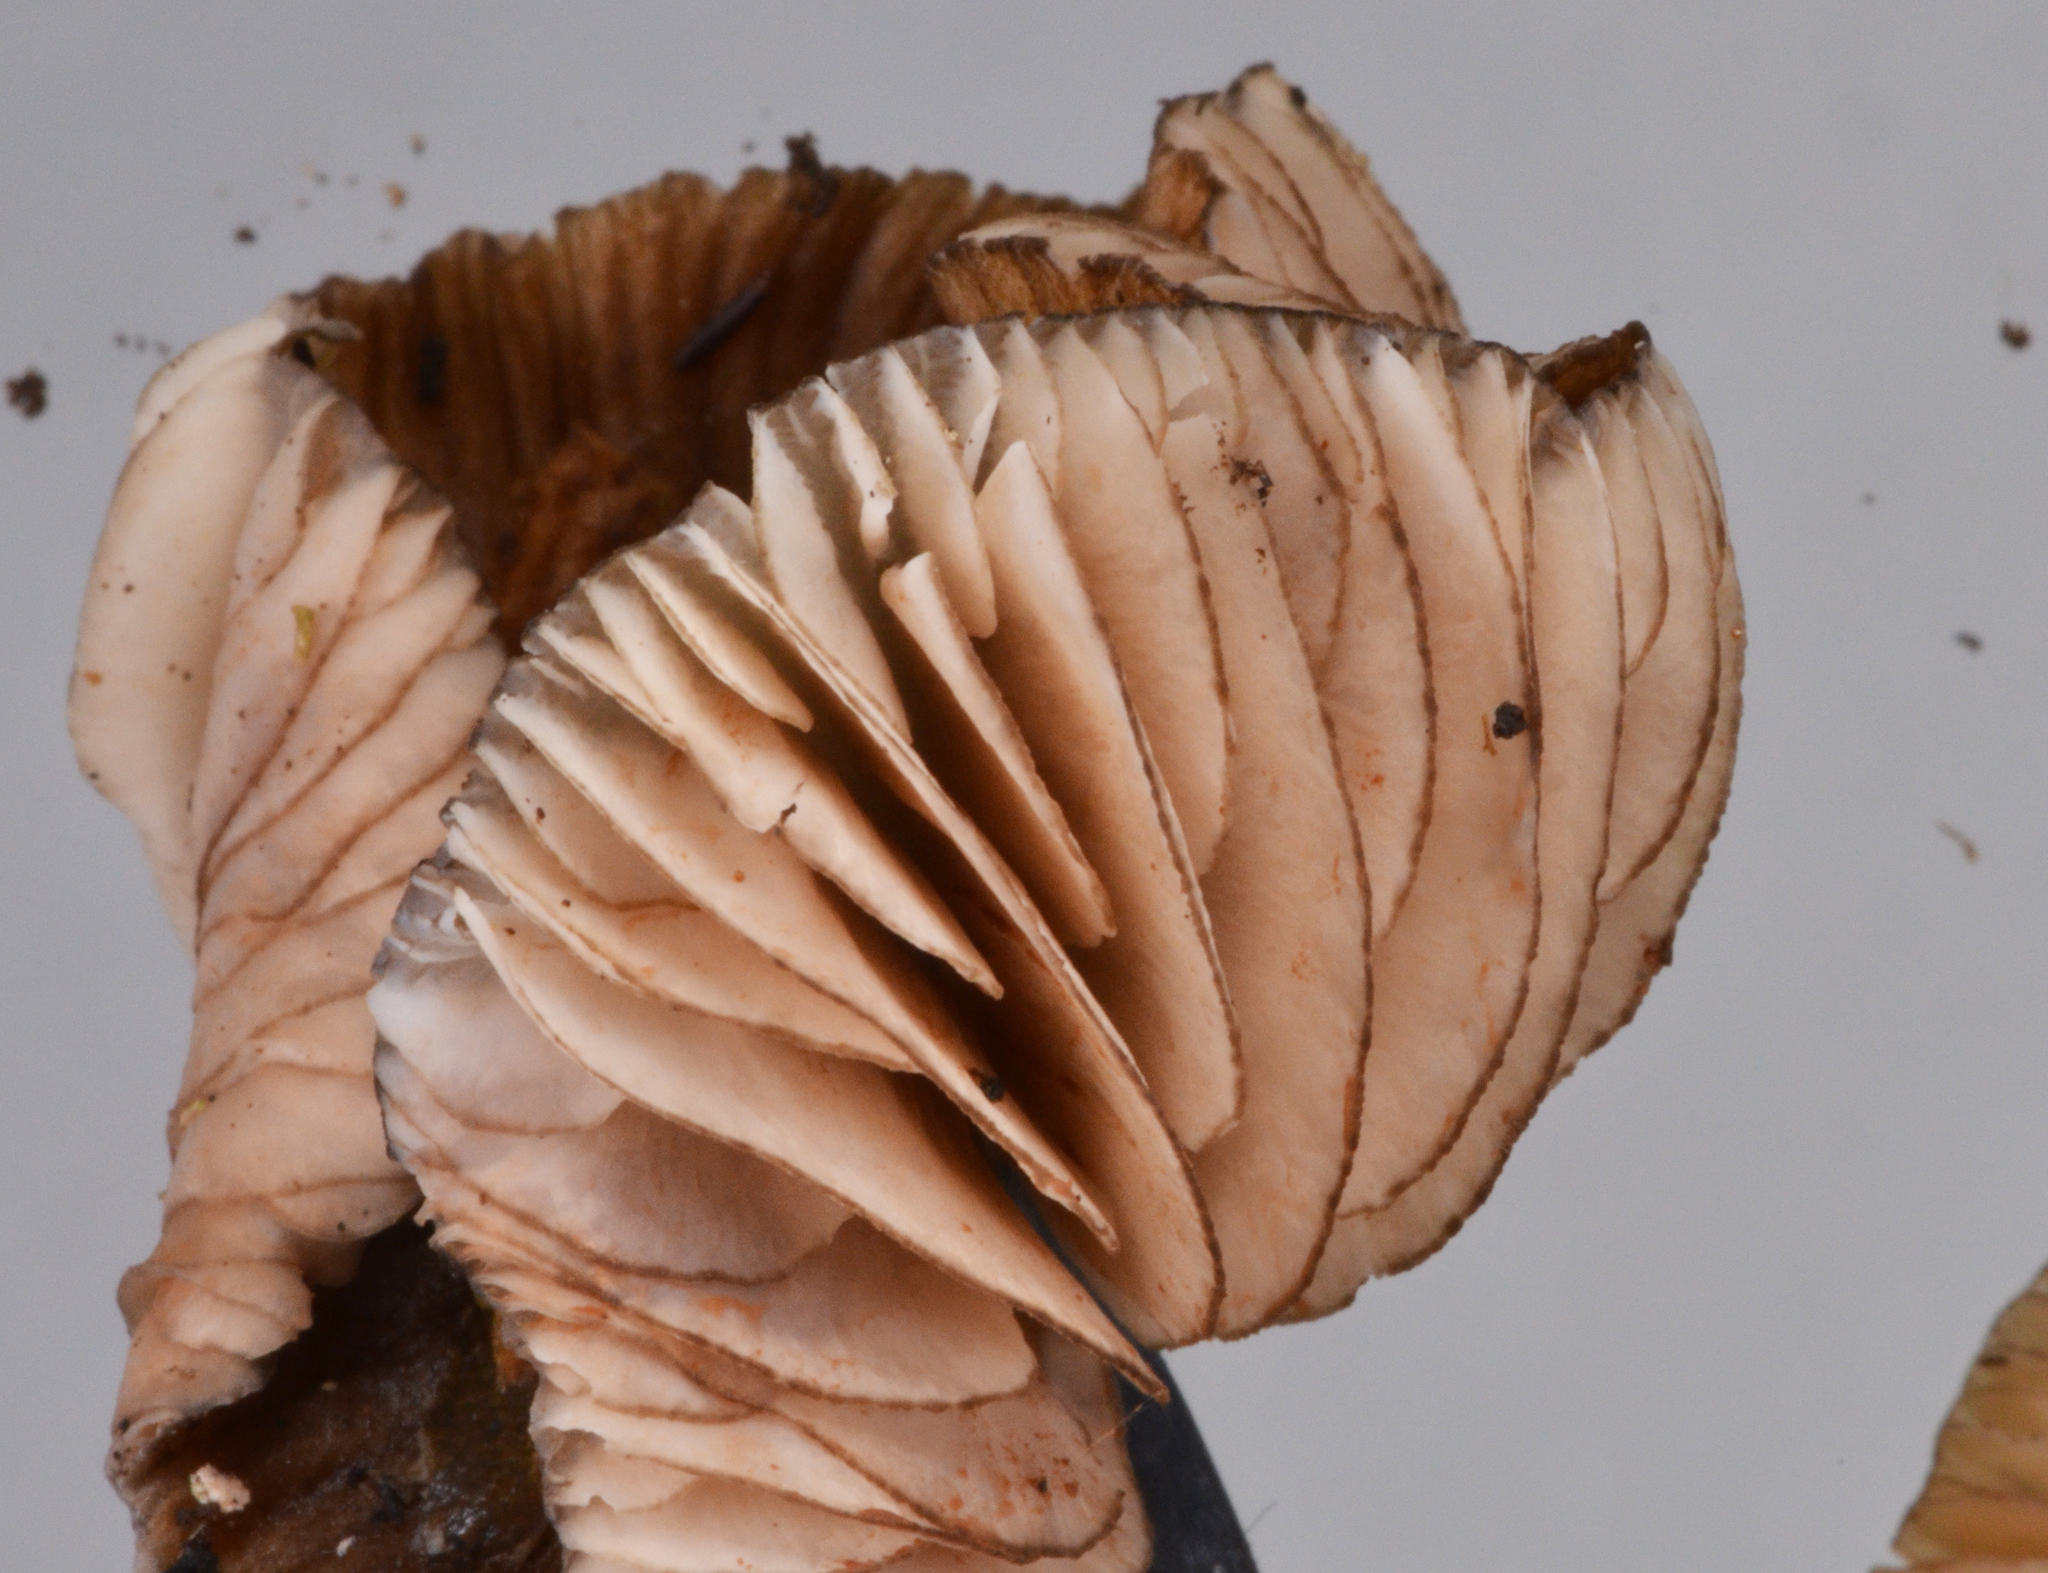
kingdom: Fungi
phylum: Basidiomycota
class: Agaricomycetes
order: Agaricales
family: Entolomataceae
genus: Entoloma
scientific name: Entoloma duplocoloratum
